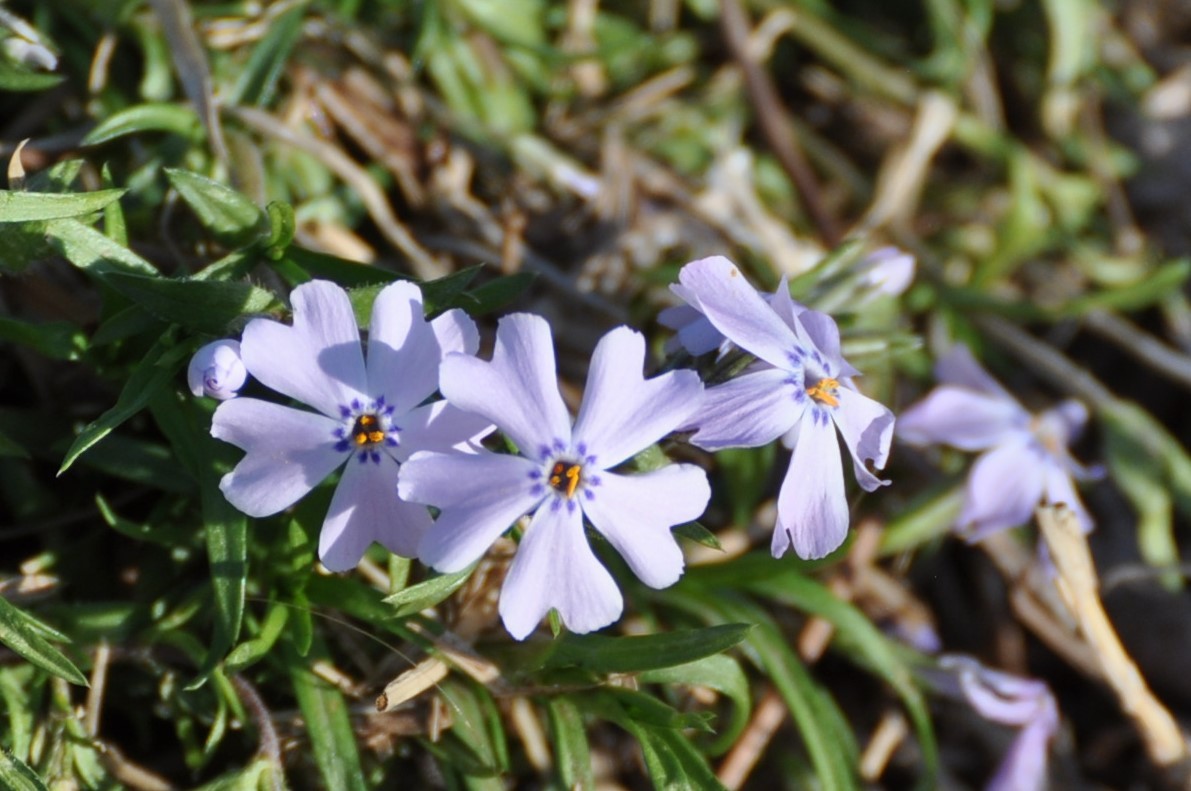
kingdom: Plantae
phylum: Tracheophyta
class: Magnoliopsida
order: Ericales
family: Polemoniaceae
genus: Phlox
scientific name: Phlox subulata
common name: Moss phlox
